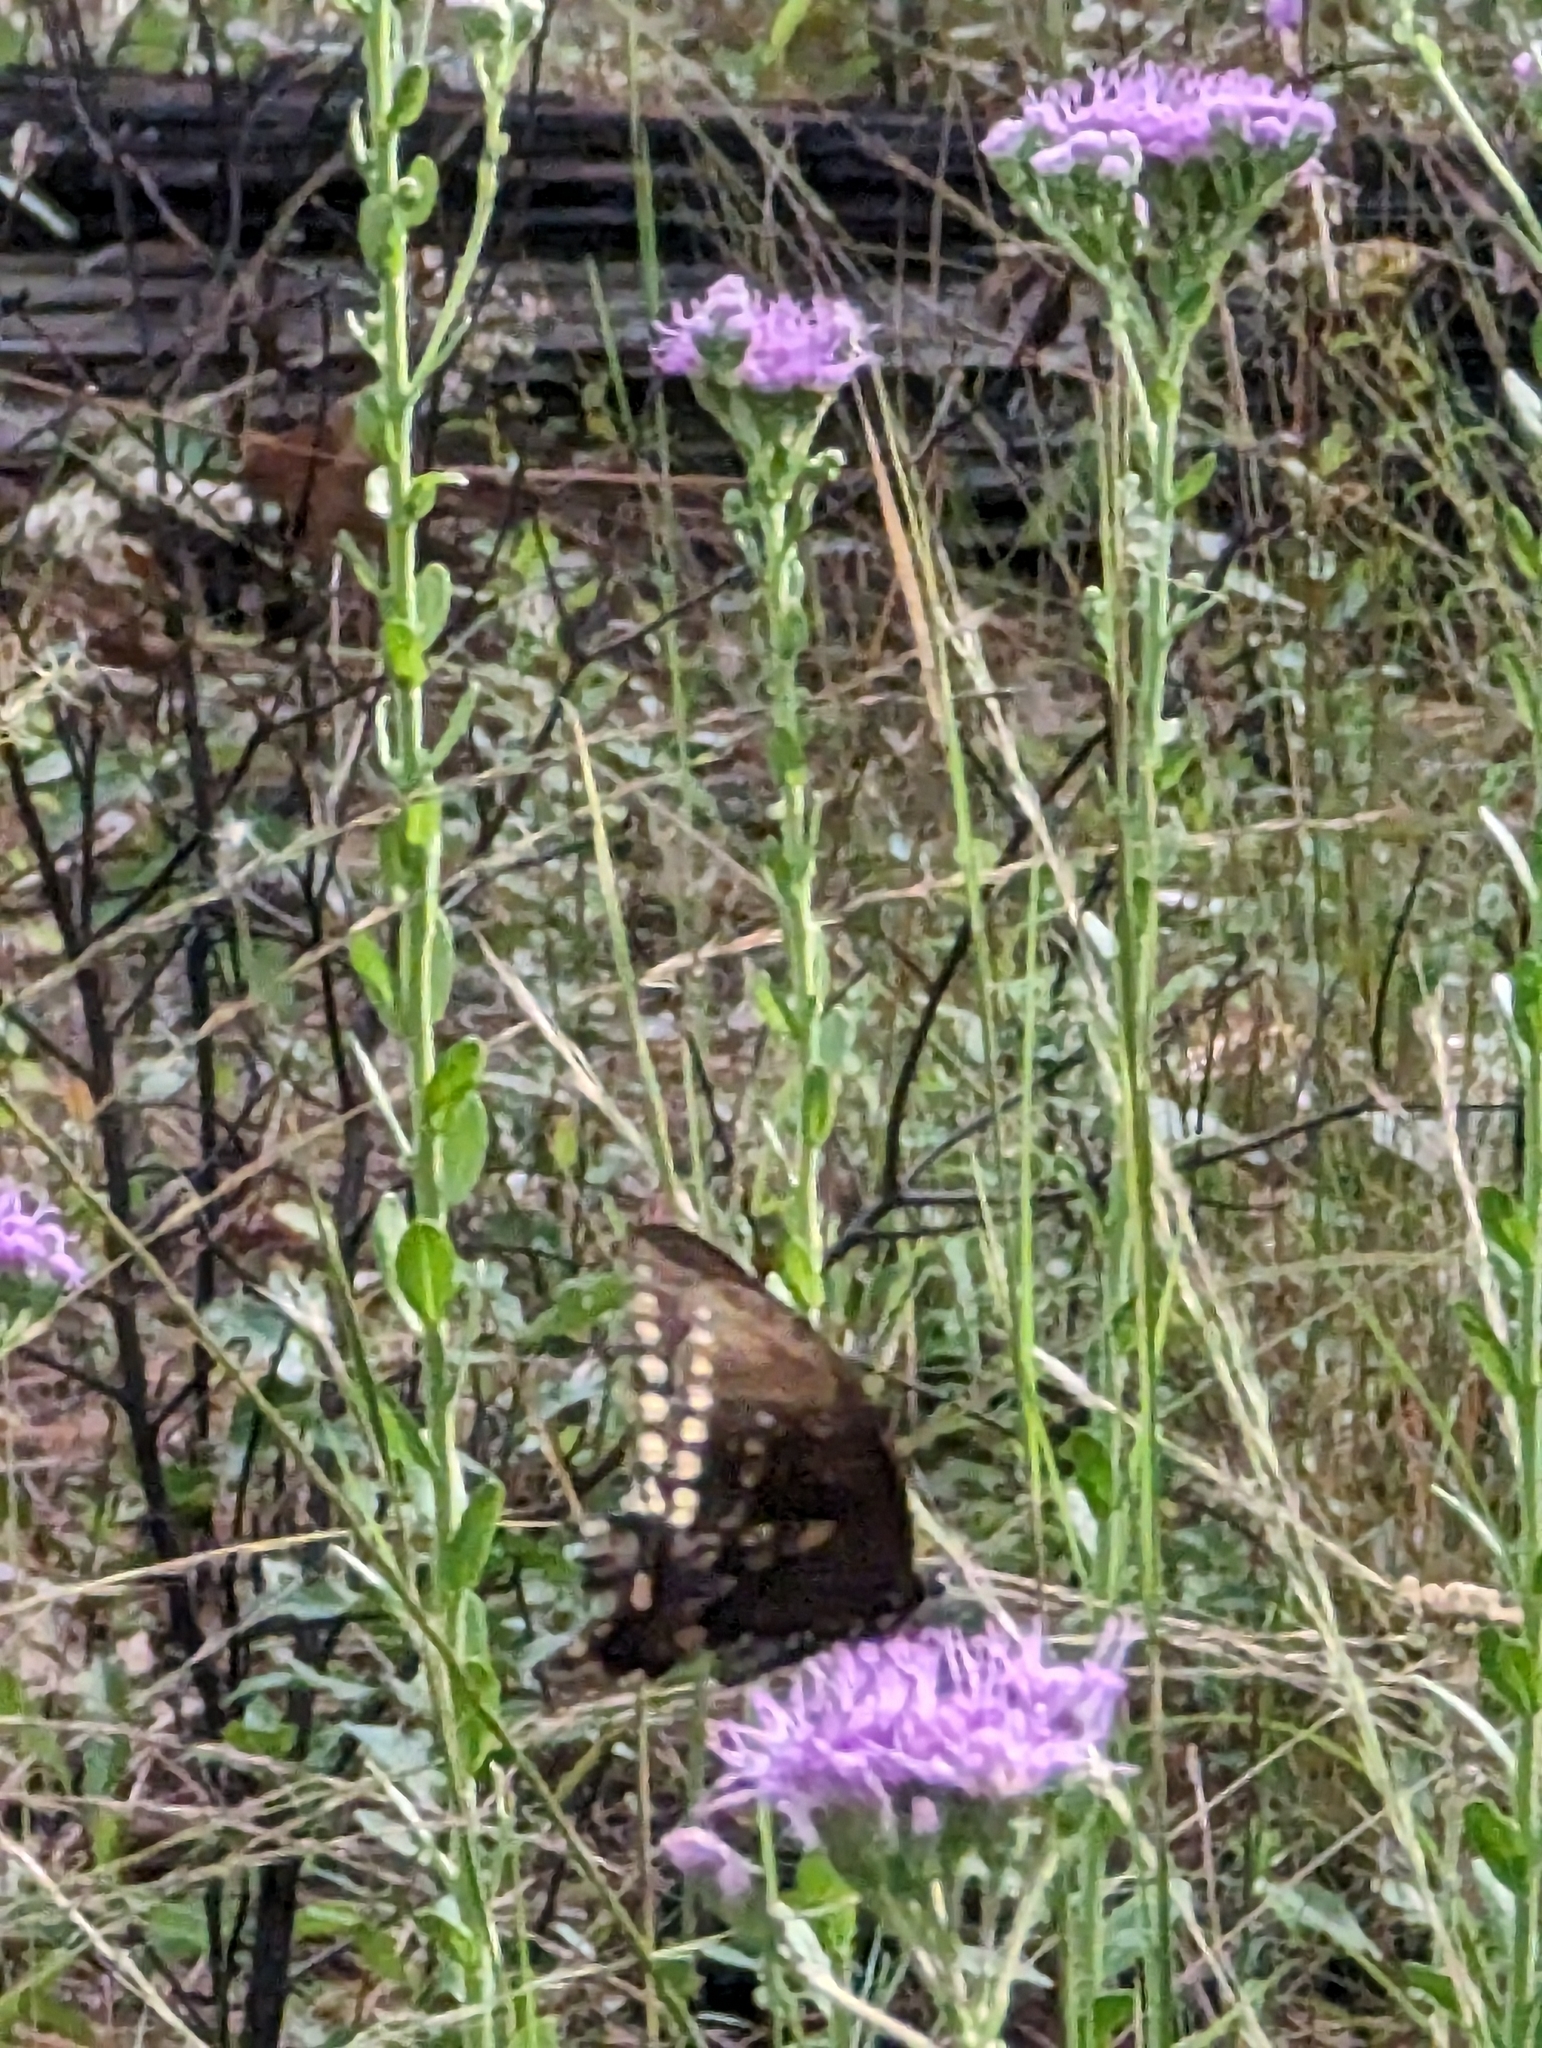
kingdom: Animalia
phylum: Arthropoda
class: Insecta
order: Lepidoptera
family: Papilionidae
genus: Papilio
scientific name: Papilio troilus
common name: Spicebush swallowtail
